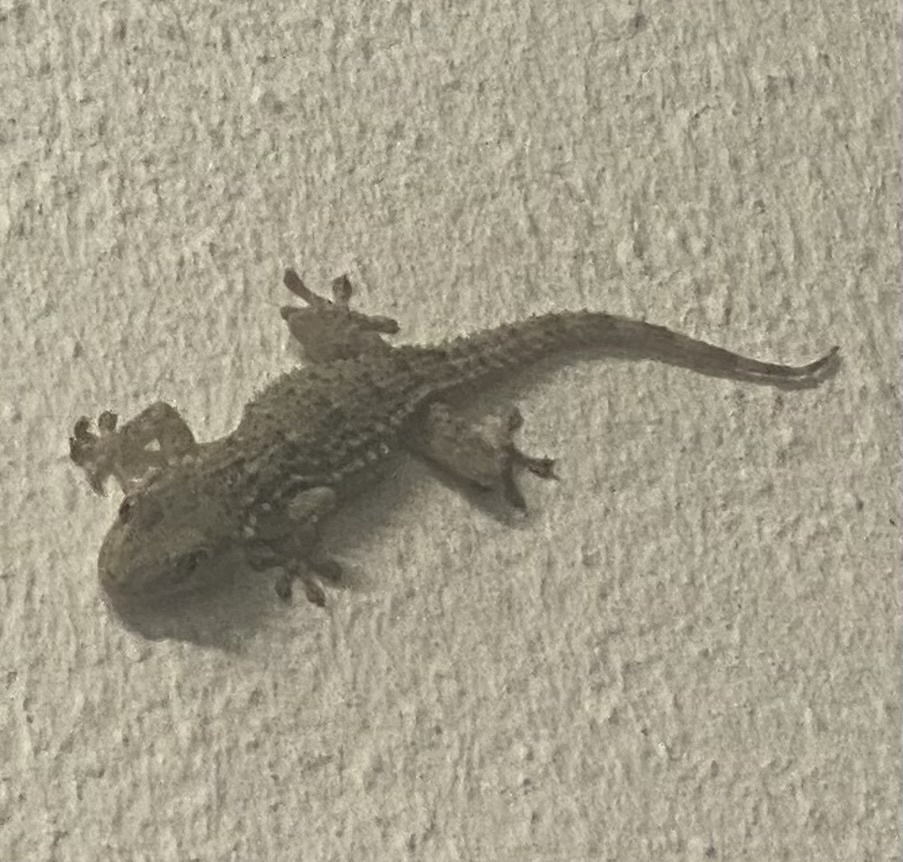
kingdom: Animalia
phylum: Chordata
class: Squamata
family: Phyllodactylidae
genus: Tarentola
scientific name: Tarentola mauritanica
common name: Moorish gecko
